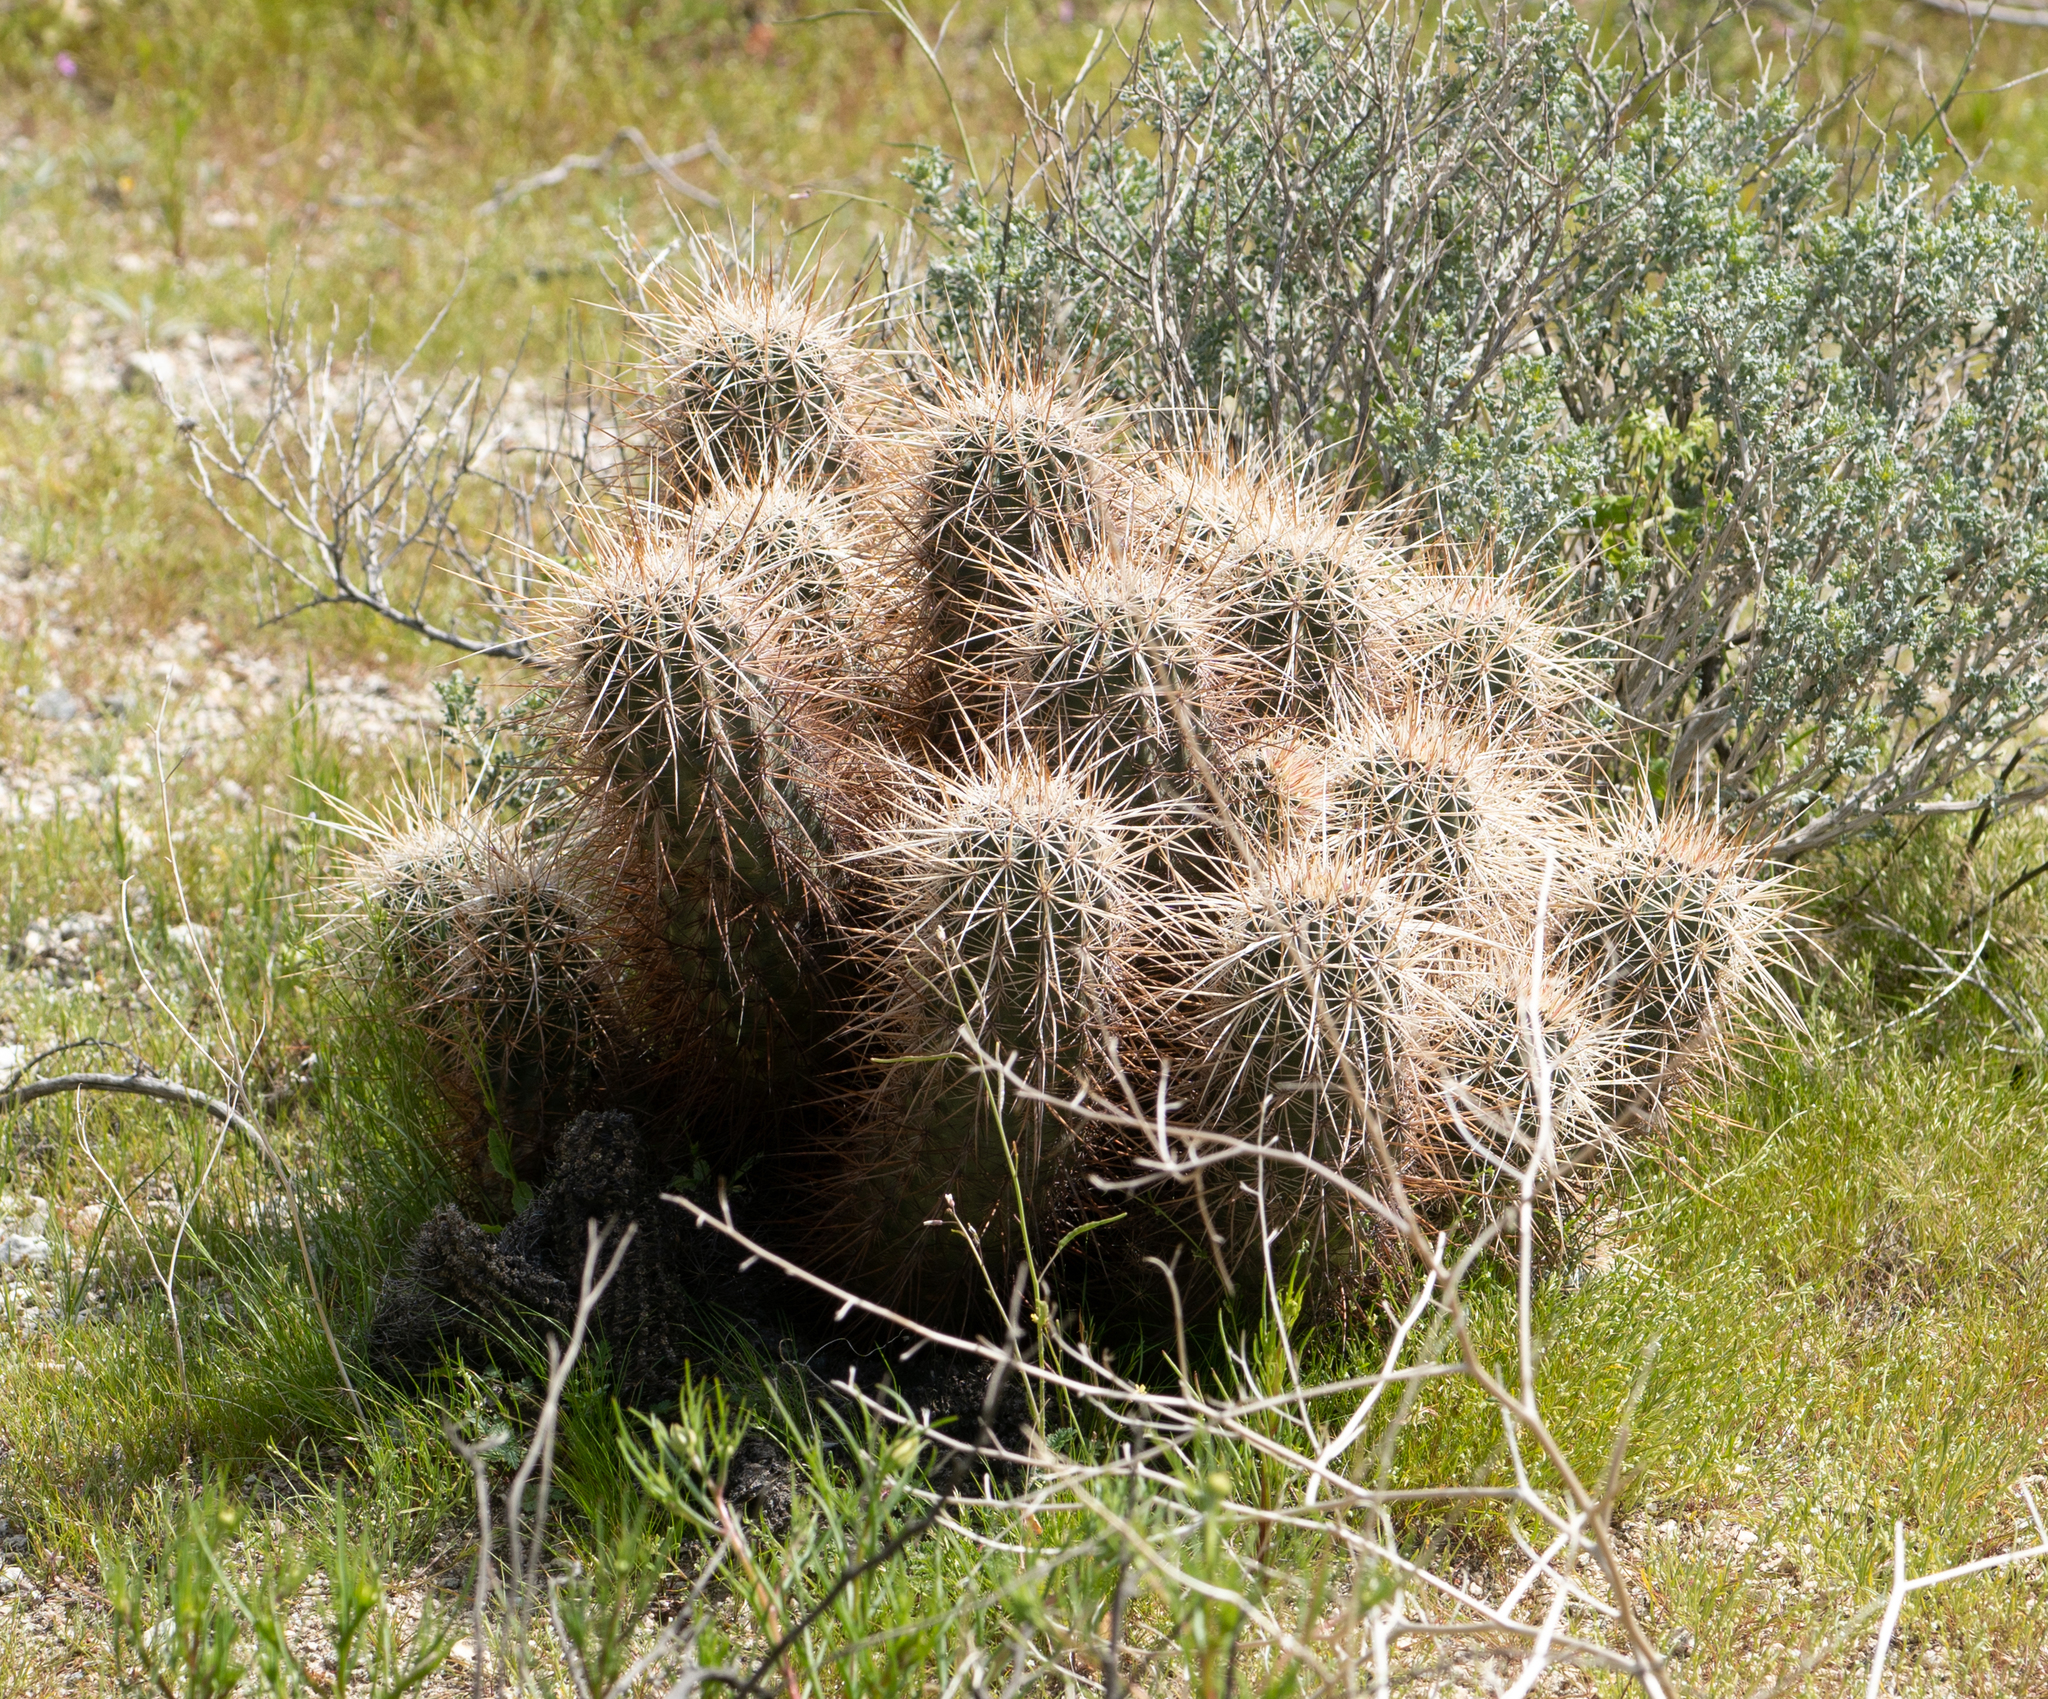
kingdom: Plantae
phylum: Tracheophyta
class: Magnoliopsida
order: Caryophyllales
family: Cactaceae
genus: Echinocereus
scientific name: Echinocereus engelmannii
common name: Engelmann's hedgehog cactus
